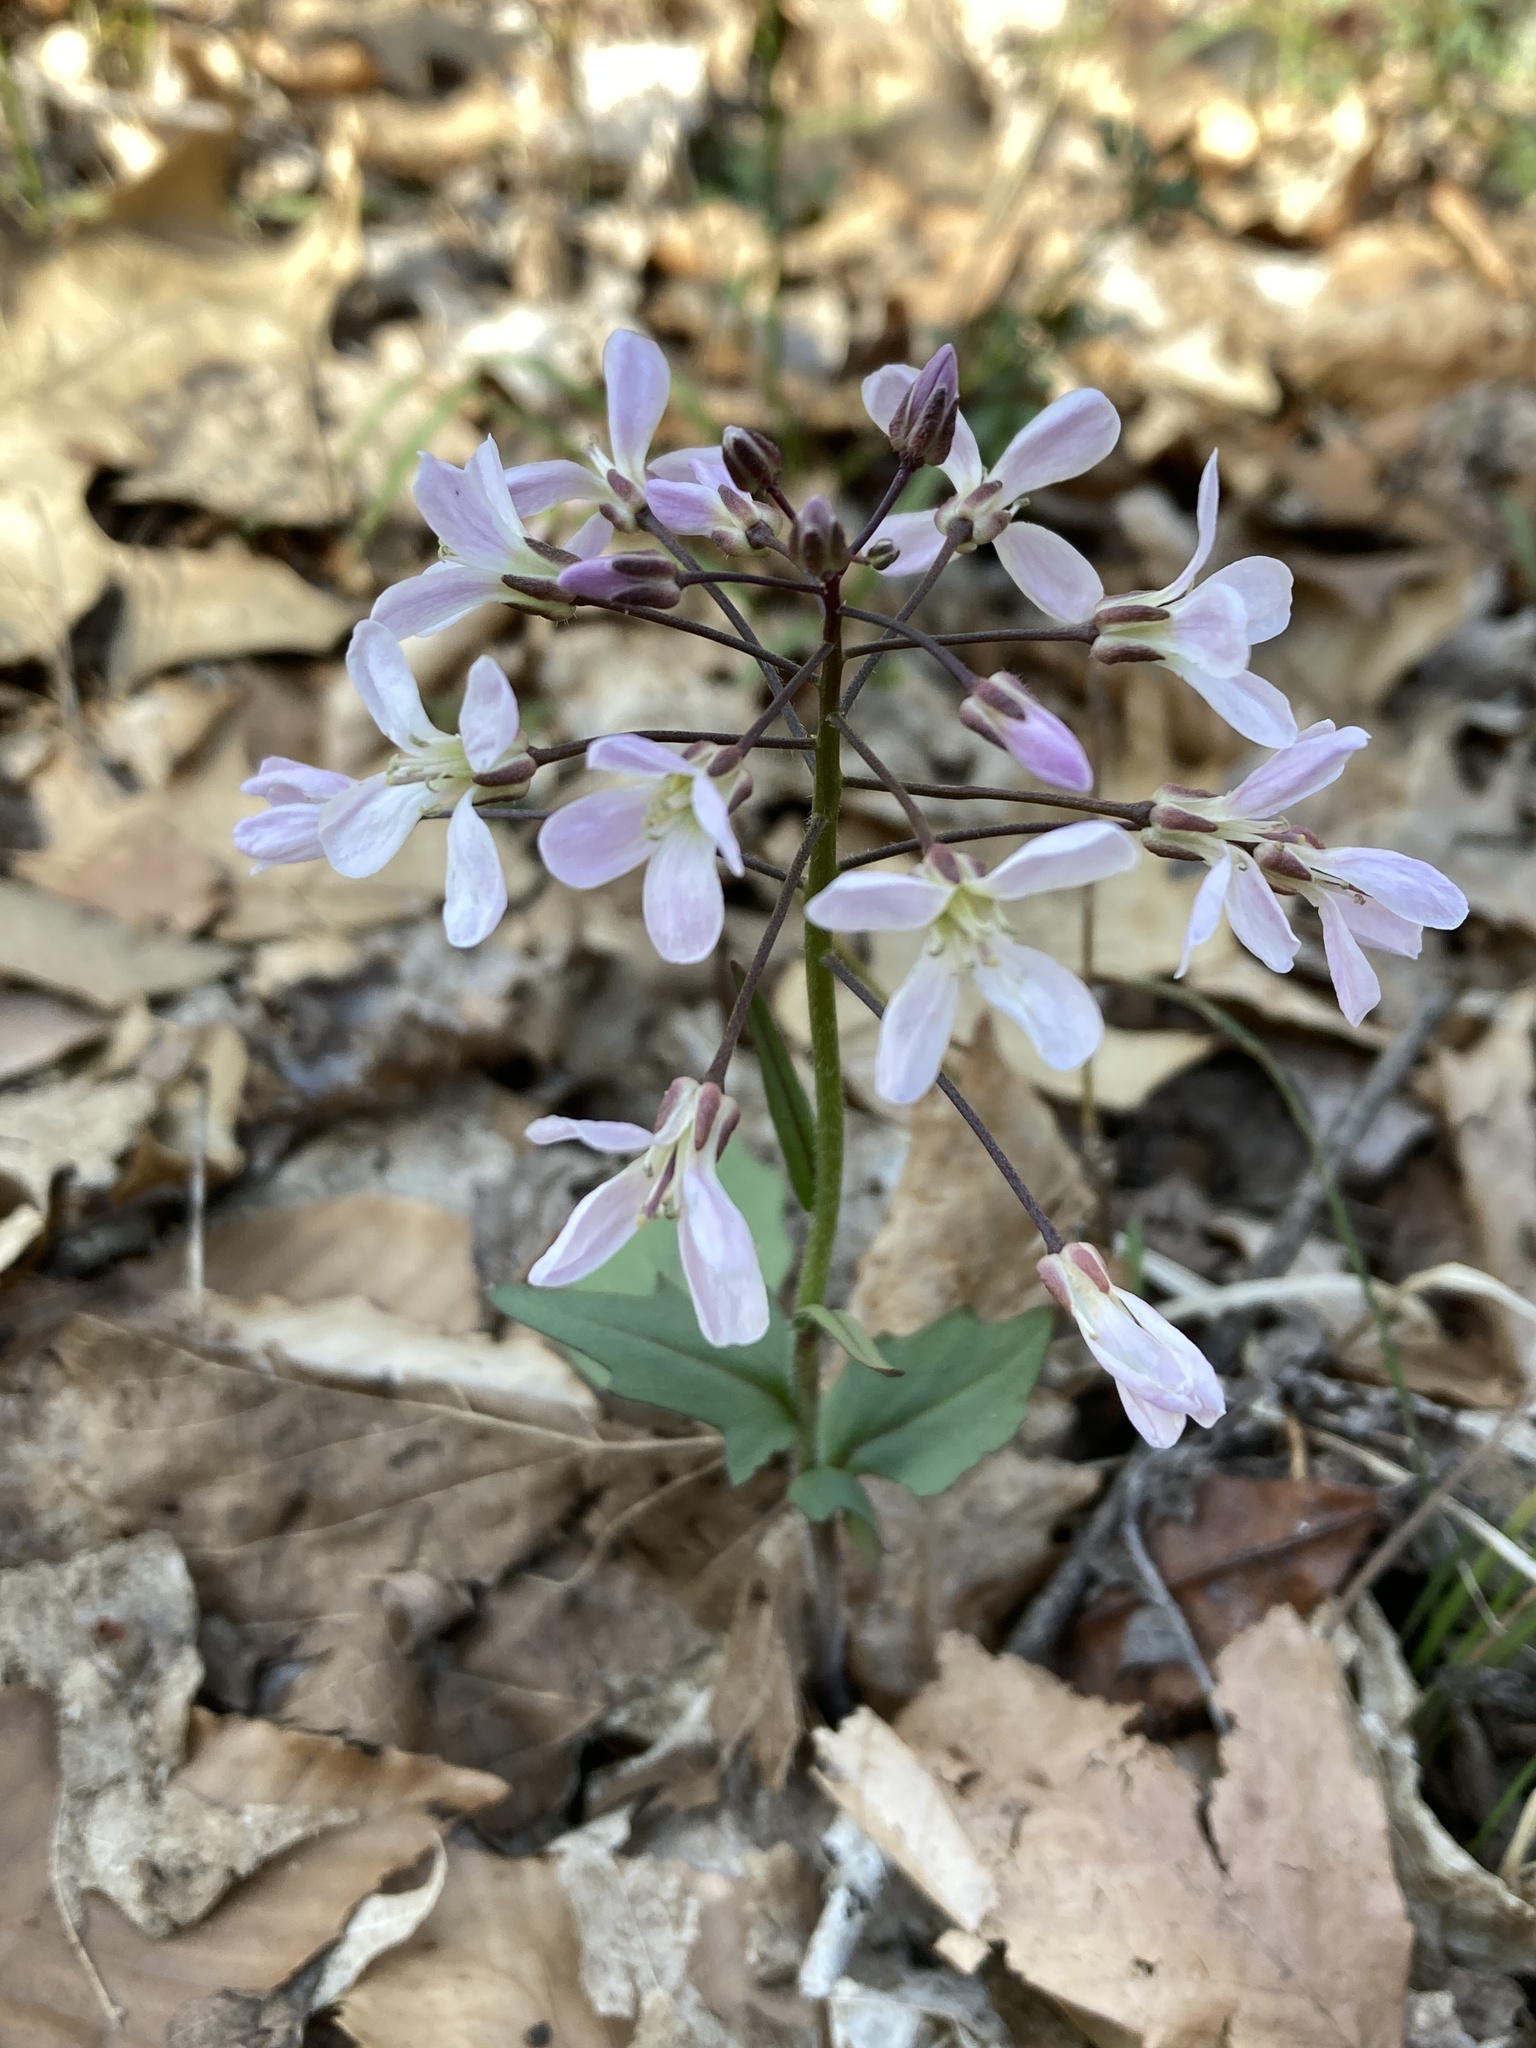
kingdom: Plantae
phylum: Tracheophyta
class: Magnoliopsida
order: Brassicales
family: Brassicaceae
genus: Cardamine
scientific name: Cardamine douglassii
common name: Purple cress
